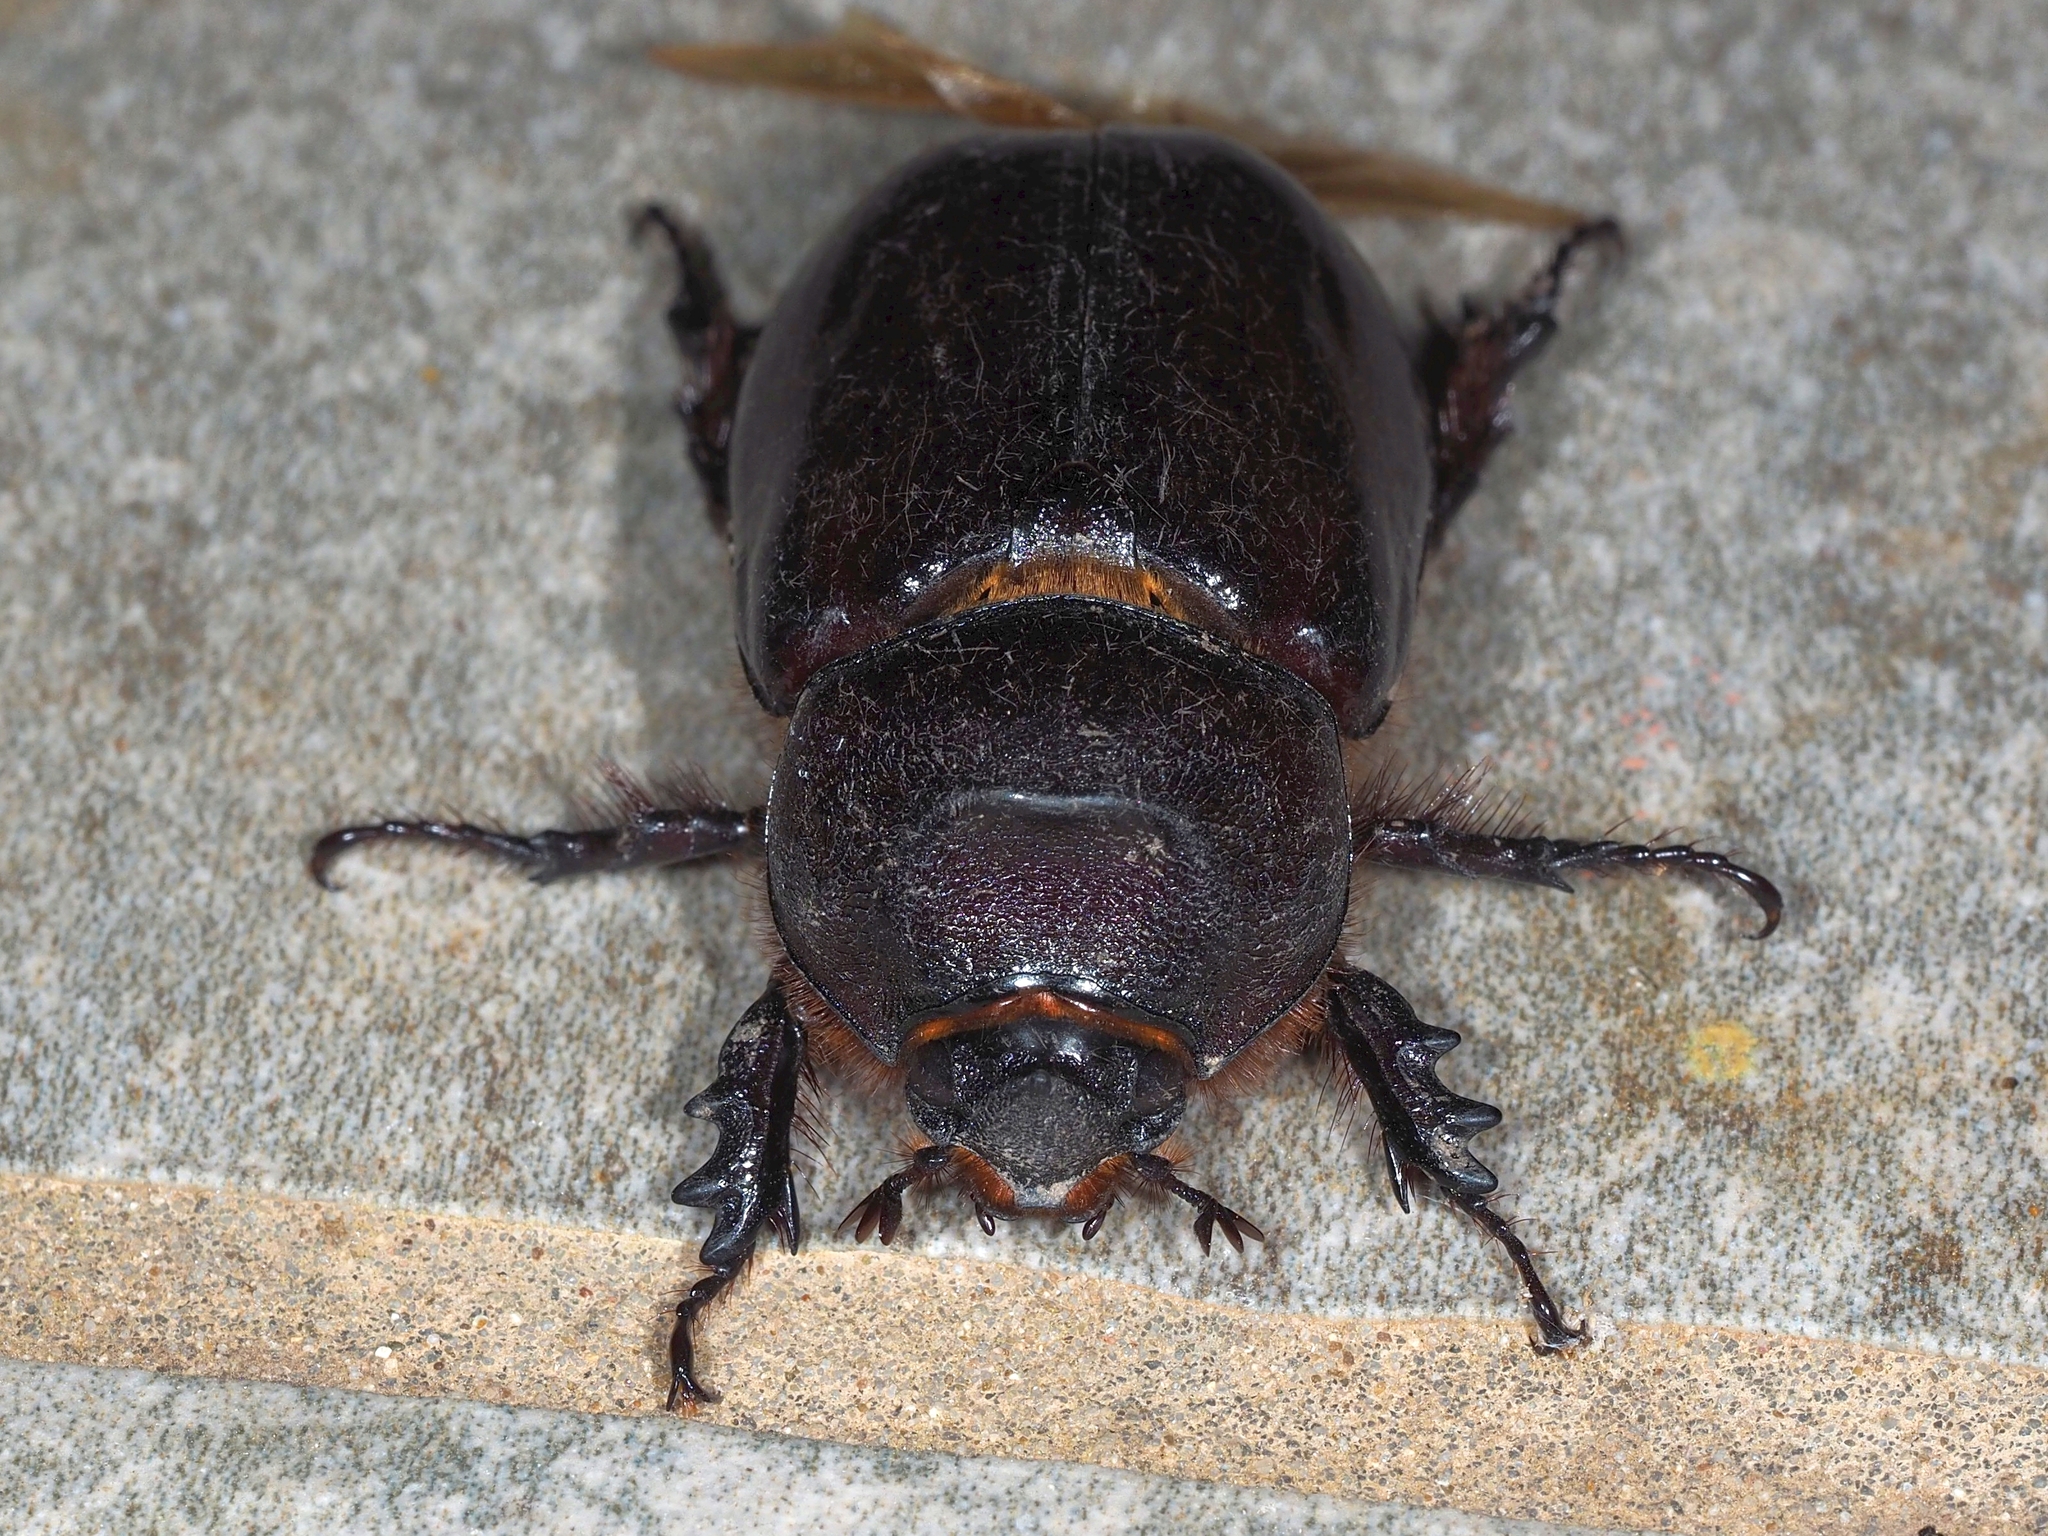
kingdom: Animalia
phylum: Arthropoda
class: Insecta
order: Coleoptera
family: Scarabaeidae
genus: Oryctes
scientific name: Oryctes nasicornis
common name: European rhinoceros beetle
